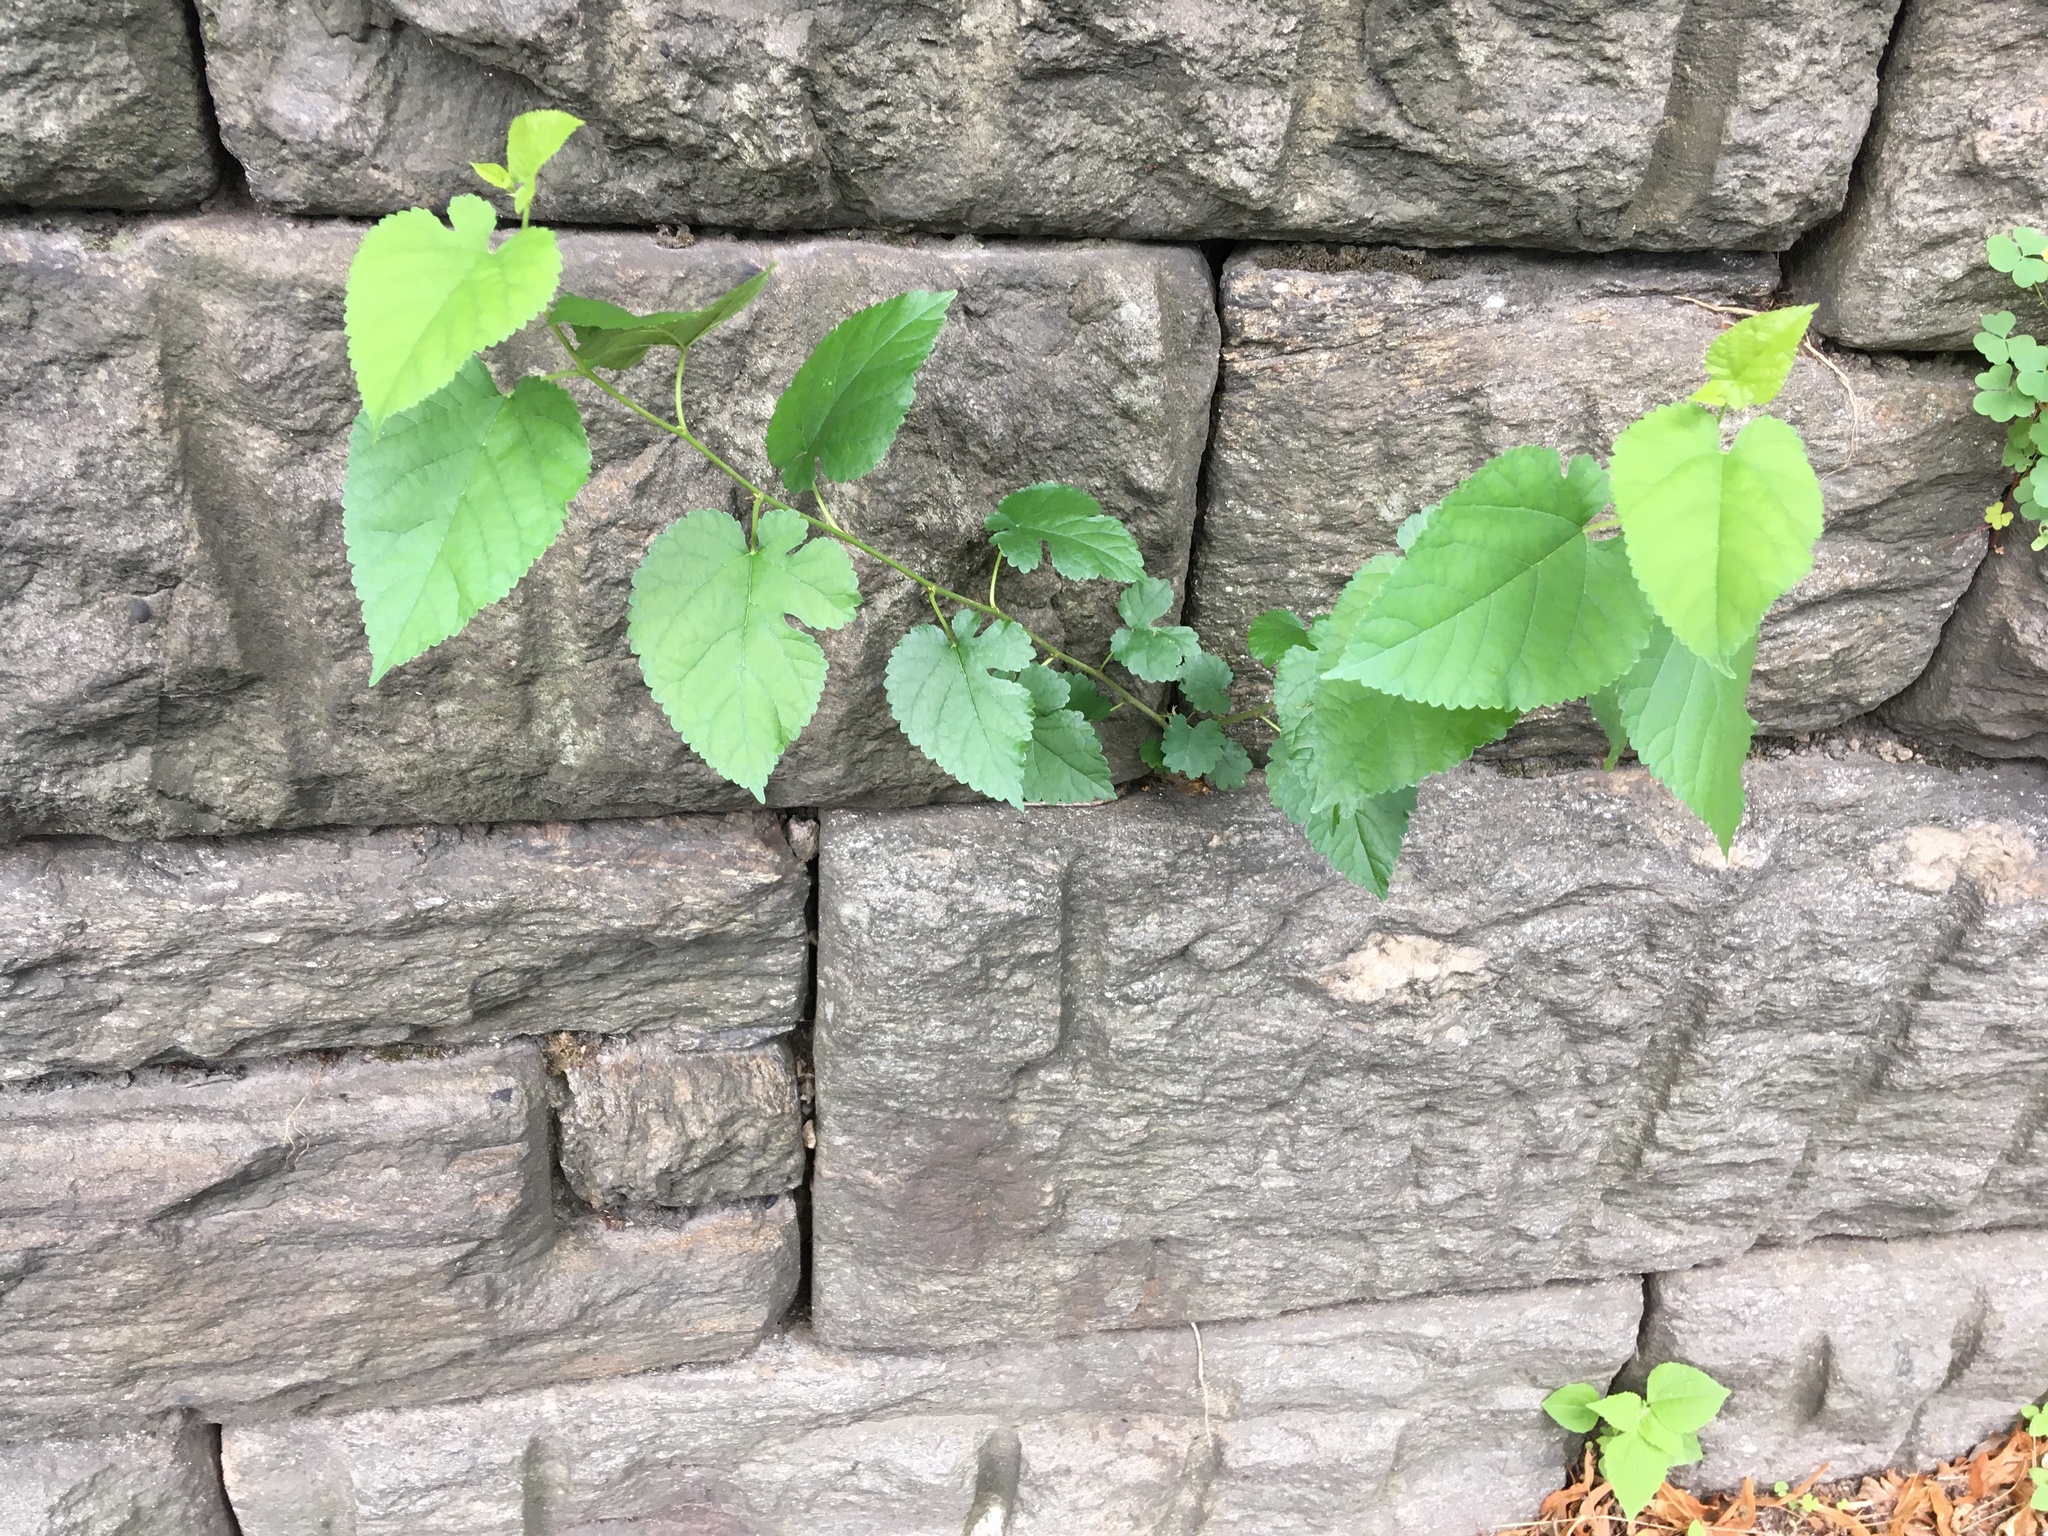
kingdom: Plantae
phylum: Tracheophyta
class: Magnoliopsida
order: Rosales
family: Moraceae
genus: Morus
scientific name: Morus alba
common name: White mulberry
